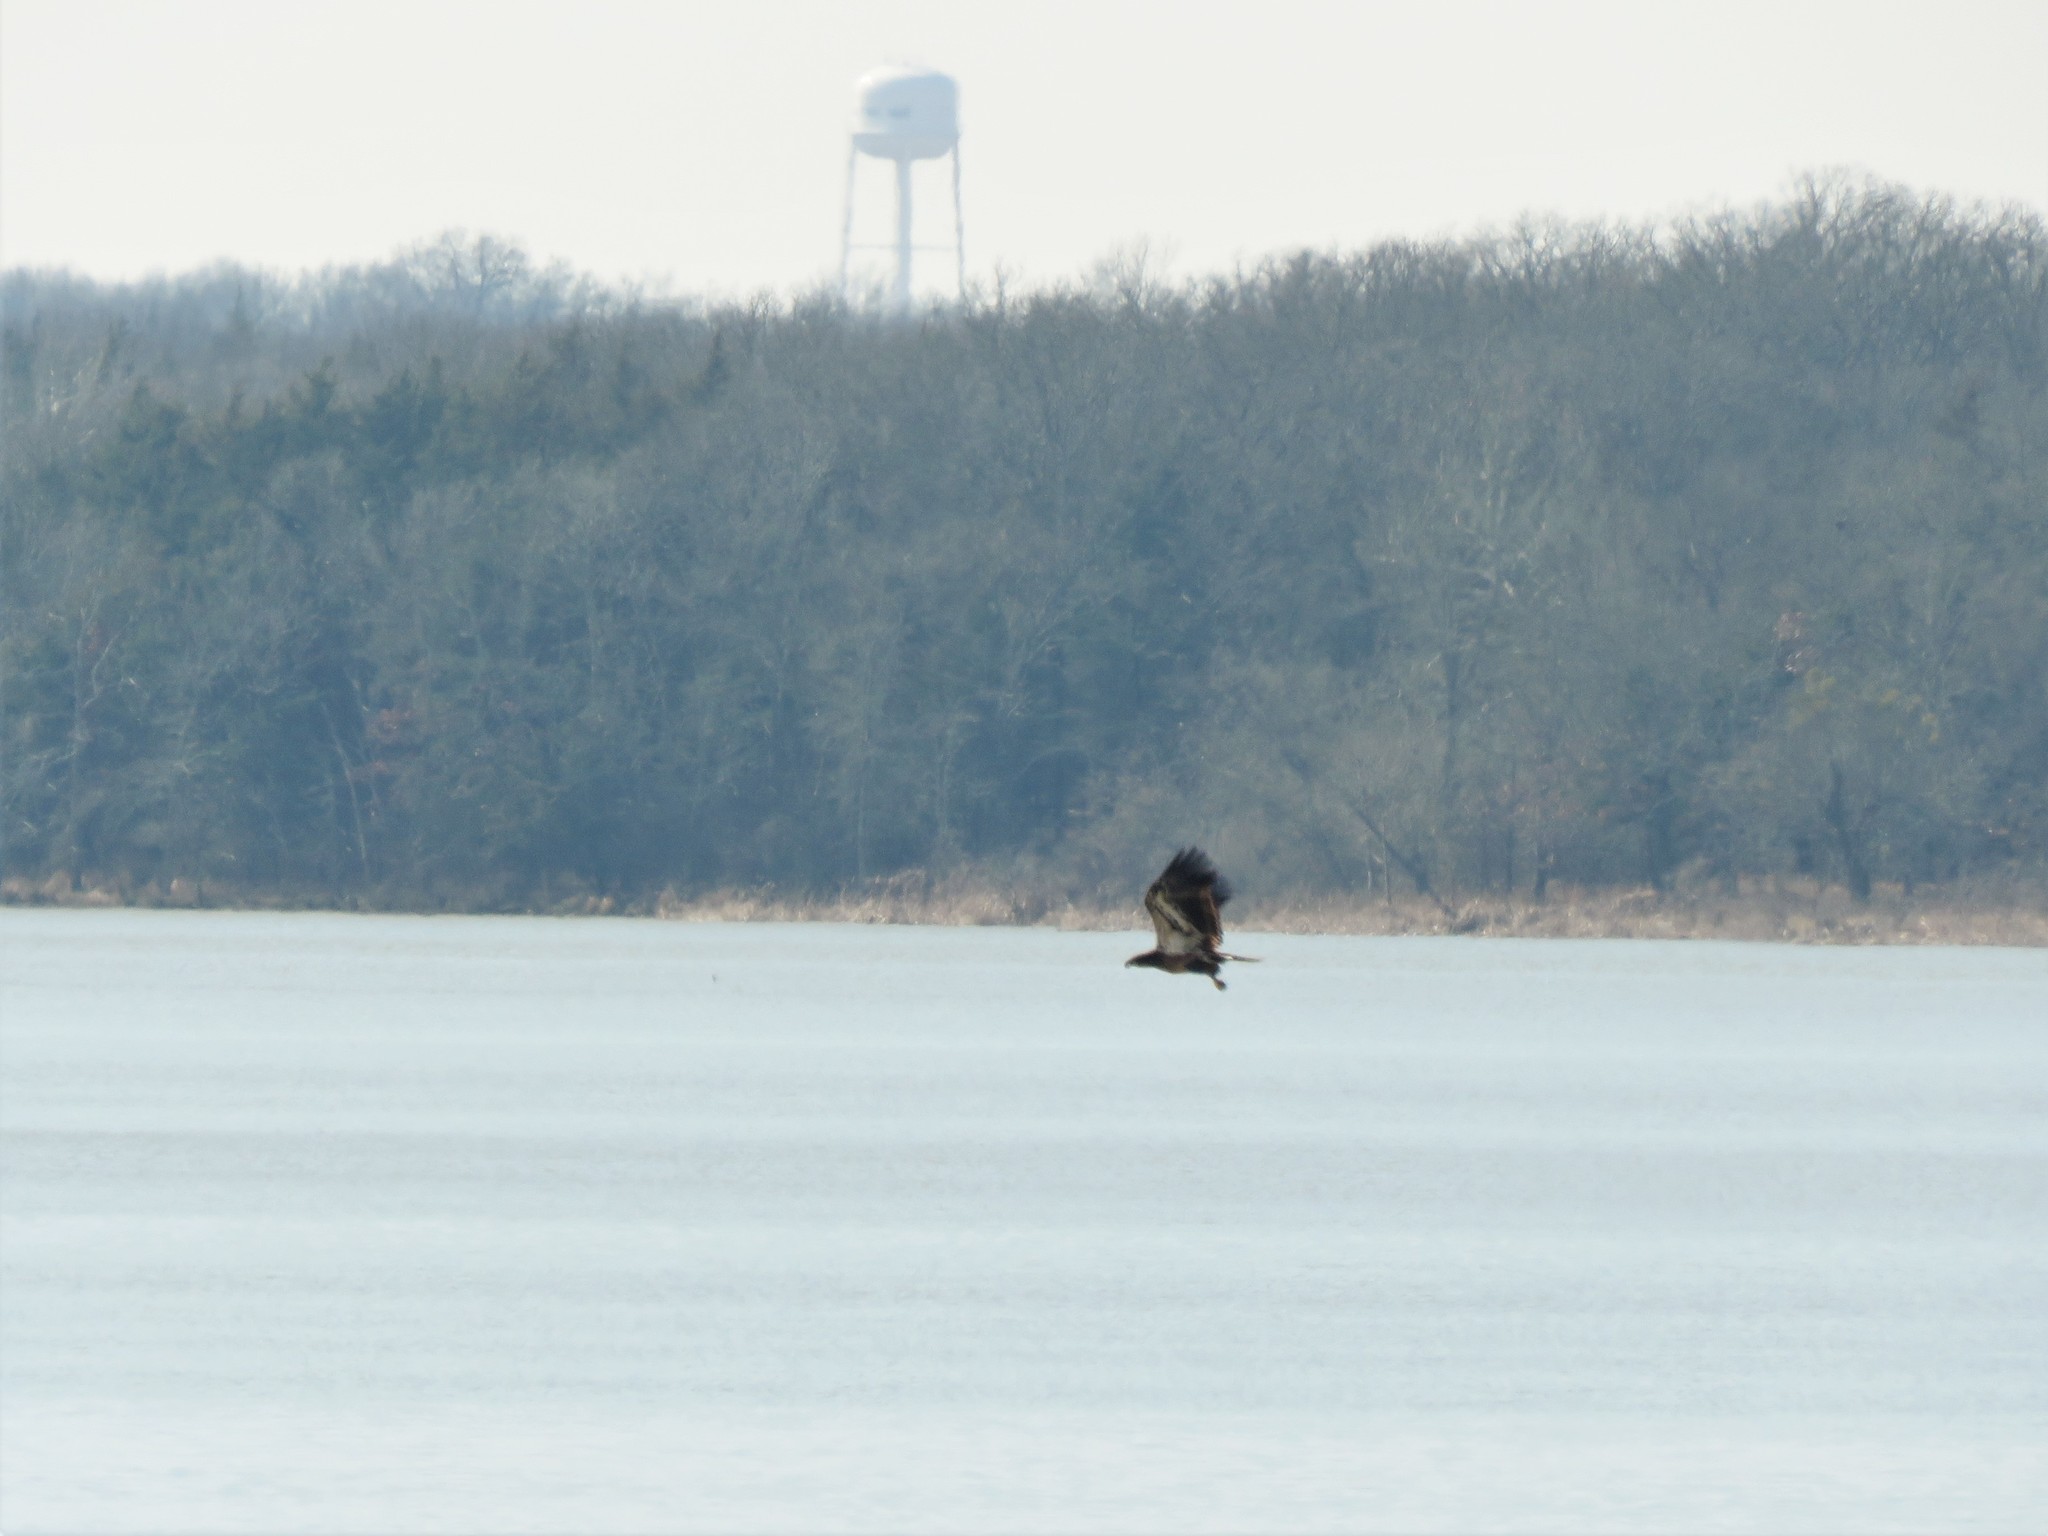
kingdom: Animalia
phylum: Chordata
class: Aves
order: Accipitriformes
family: Accipitridae
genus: Haliaeetus
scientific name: Haliaeetus leucocephalus
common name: Bald eagle
